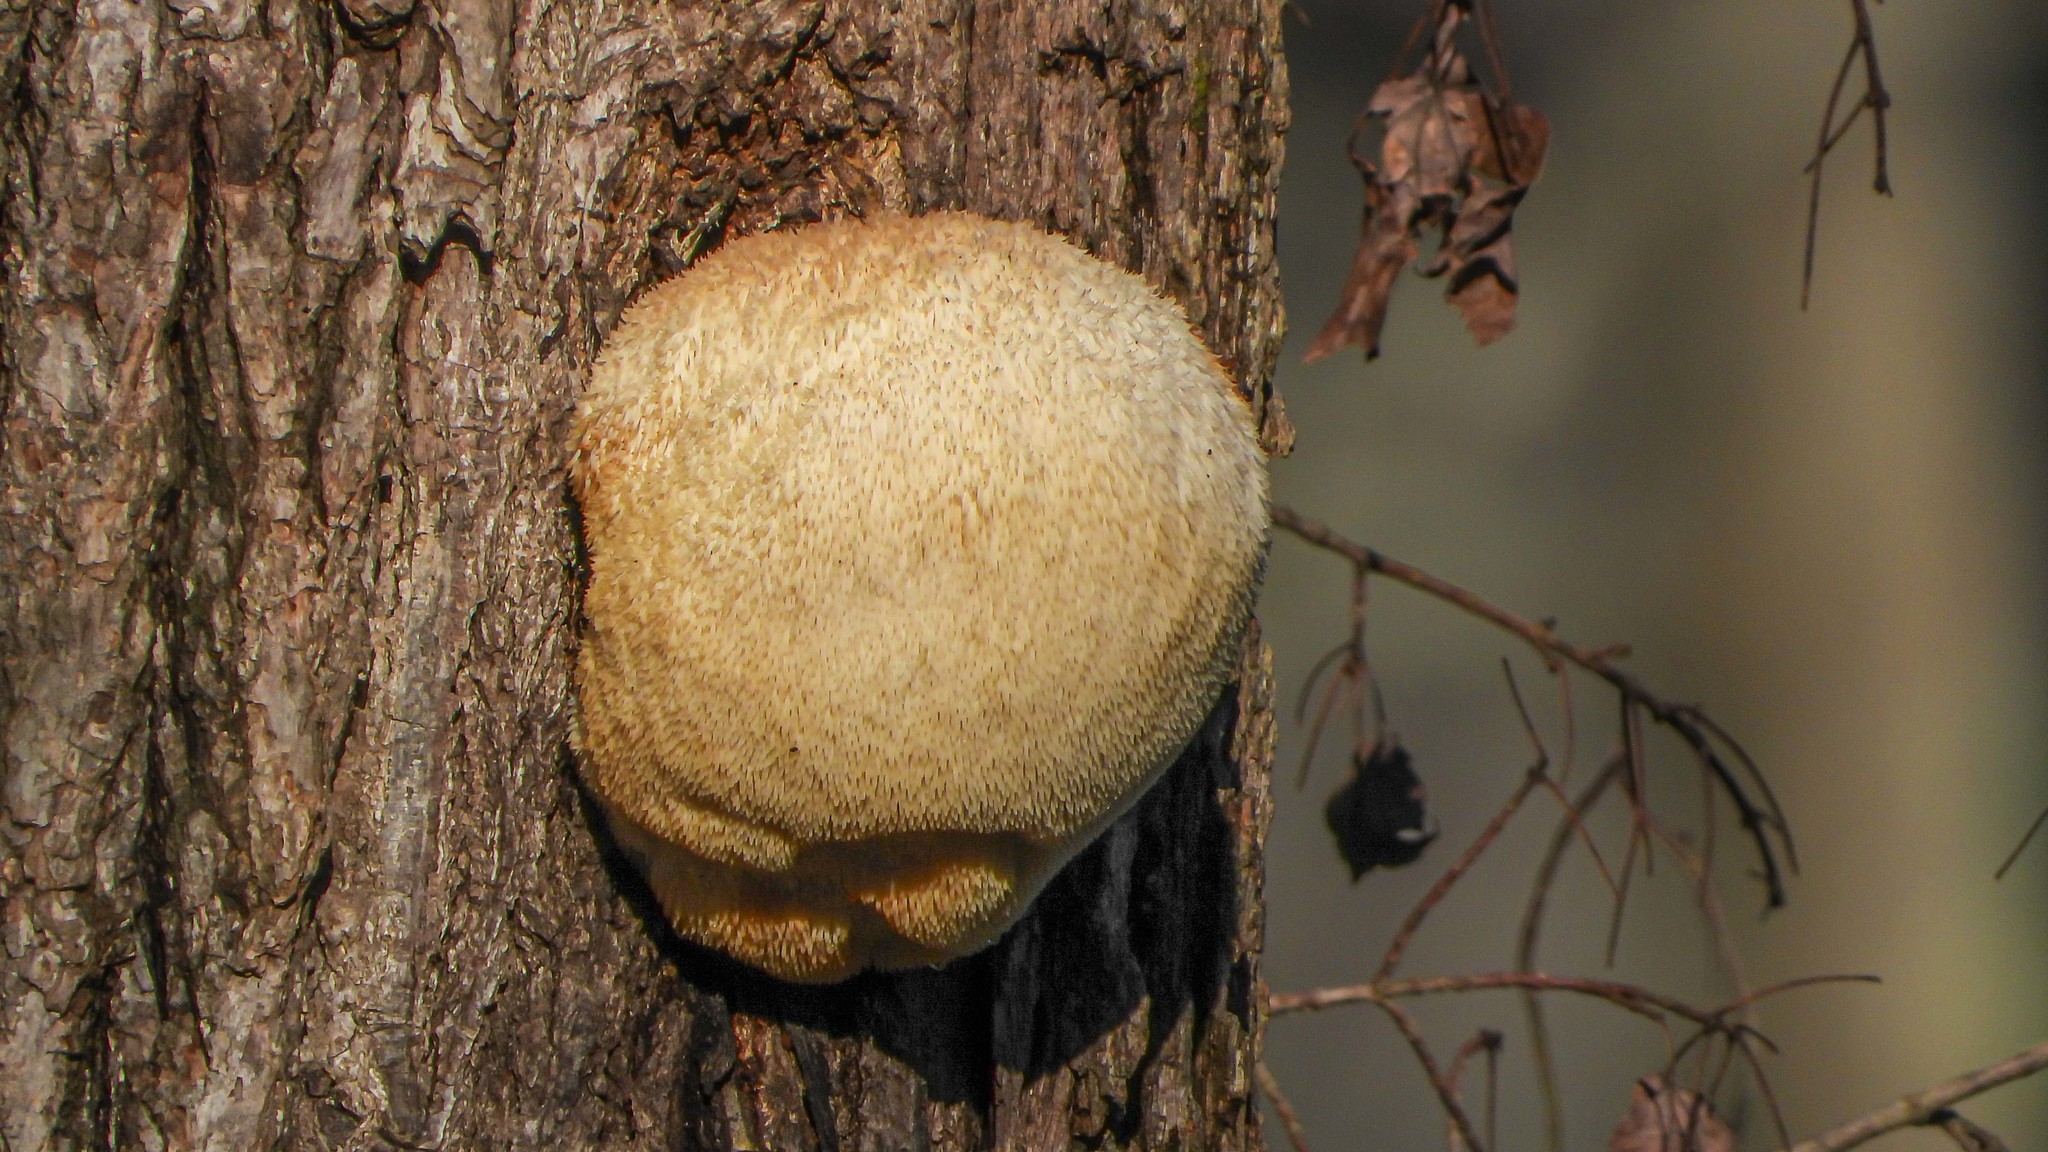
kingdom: Fungi
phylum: Basidiomycota
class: Agaricomycetes
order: Russulales
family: Hericiaceae
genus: Hericium
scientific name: Hericium erinaceus
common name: Bearded tooth
